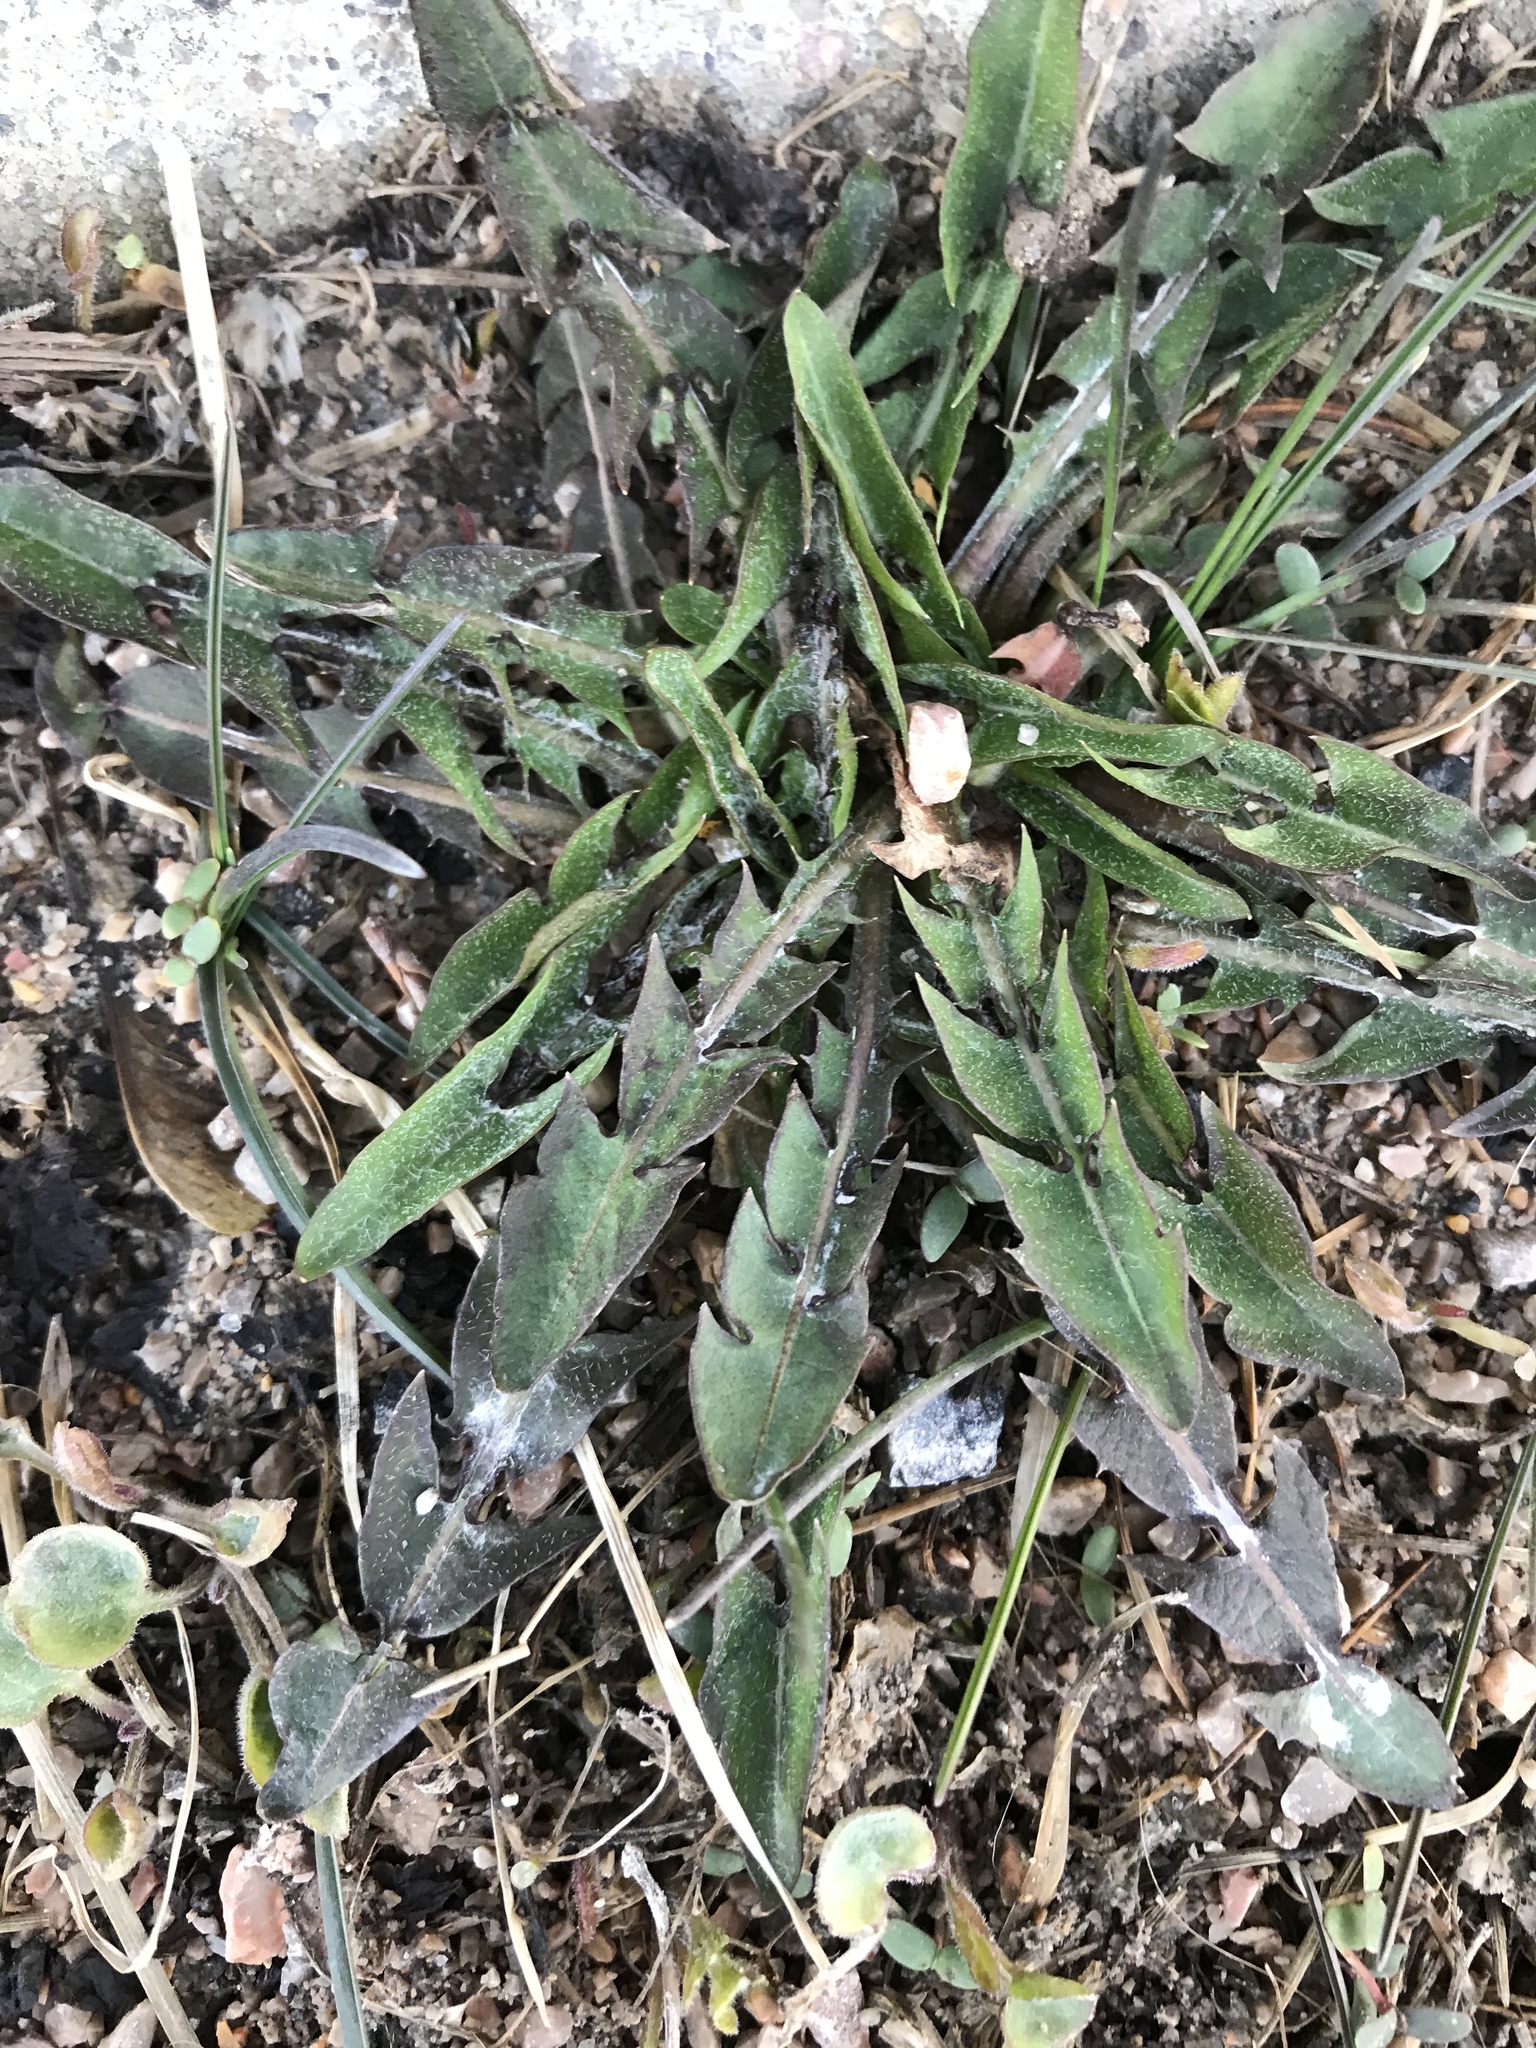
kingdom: Plantae
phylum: Tracheophyta
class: Magnoliopsida
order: Asterales
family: Asteraceae
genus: Taraxacum
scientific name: Taraxacum officinale
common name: Common dandelion
